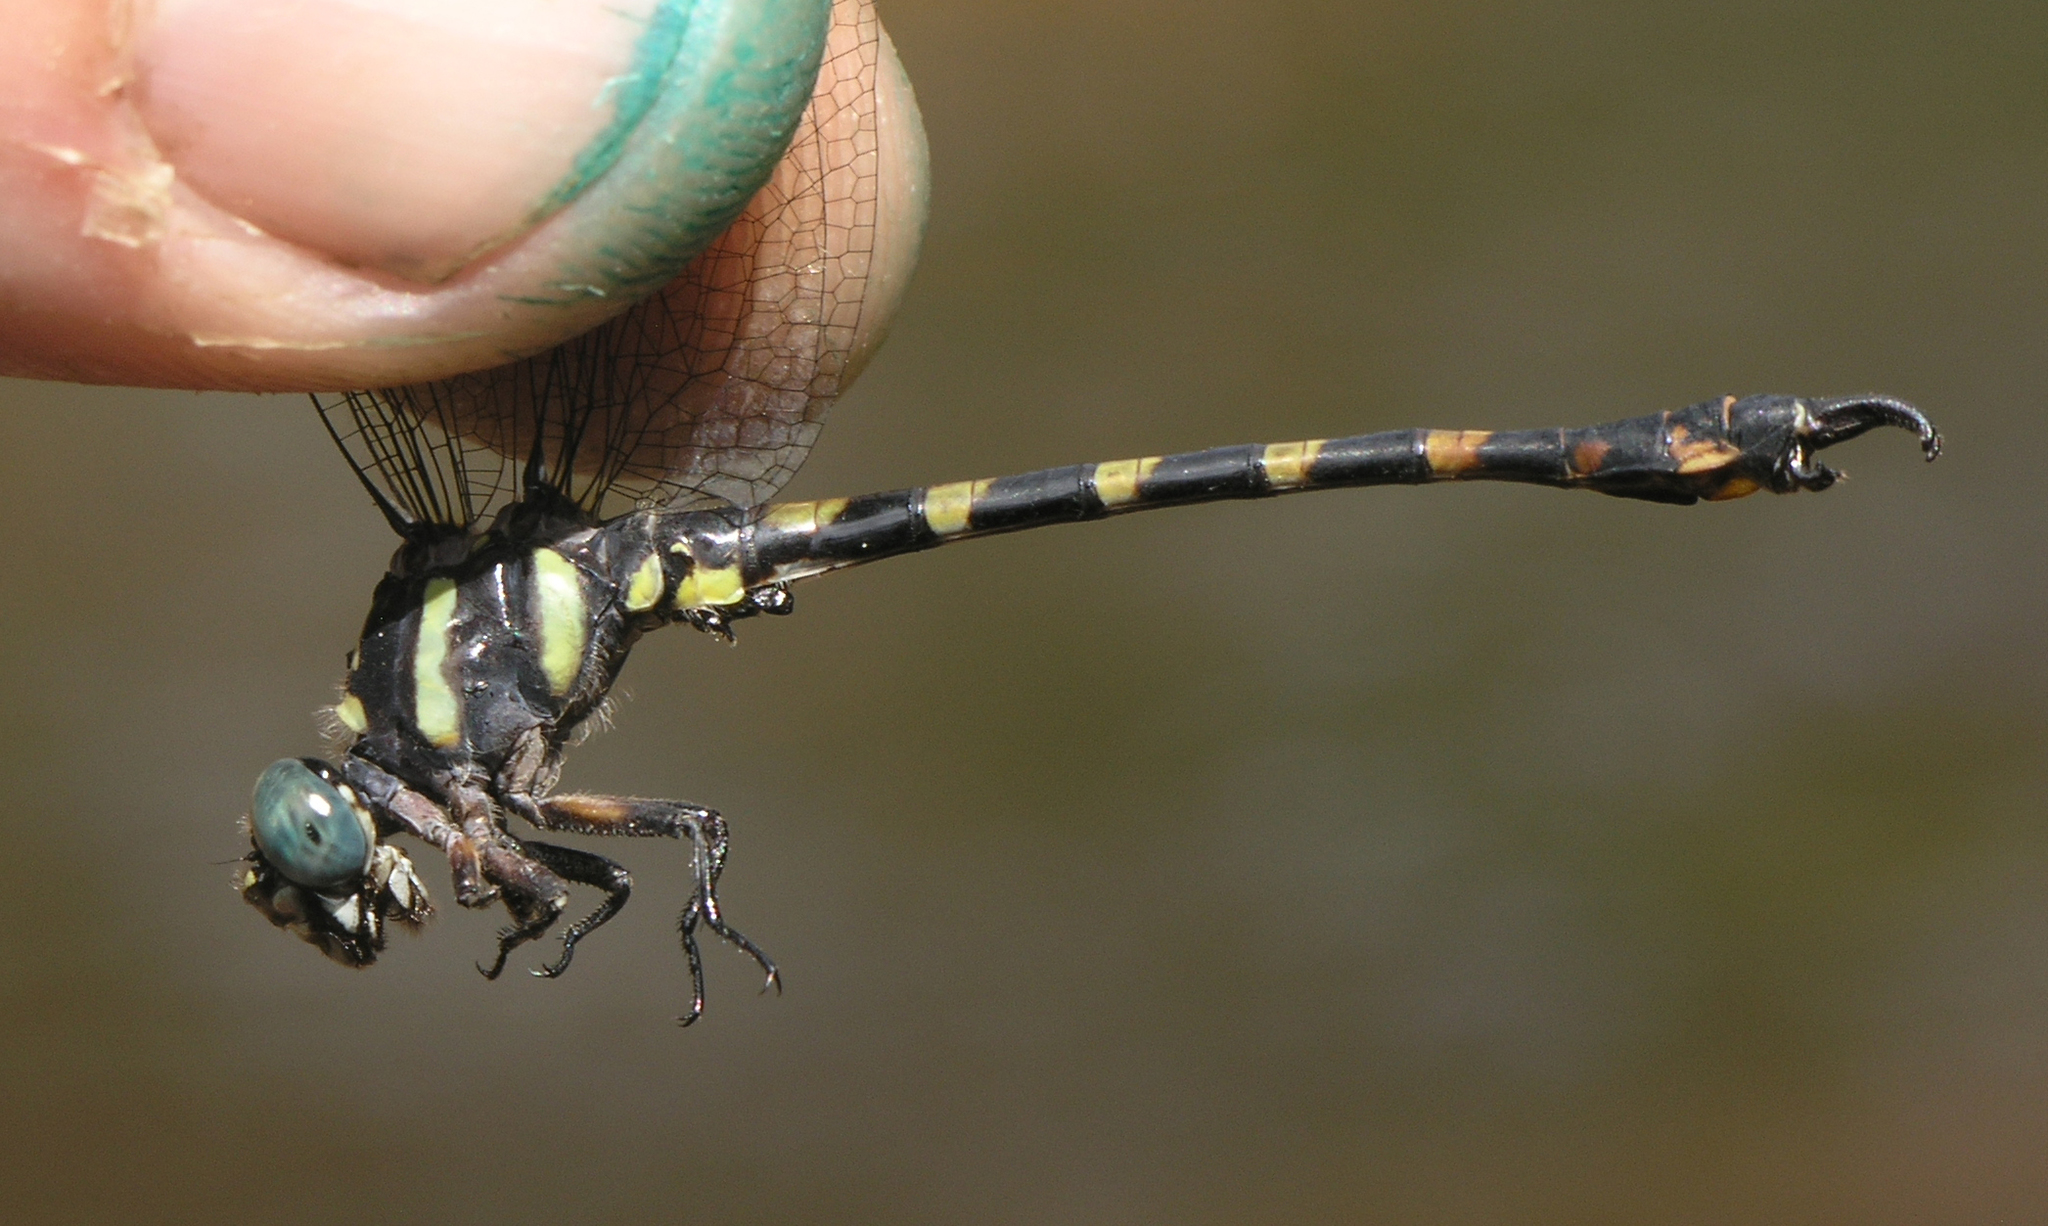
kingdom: Animalia
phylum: Arthropoda
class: Insecta
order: Odonata
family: Gomphidae
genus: Paragomphus
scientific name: Paragomphus capricornis
